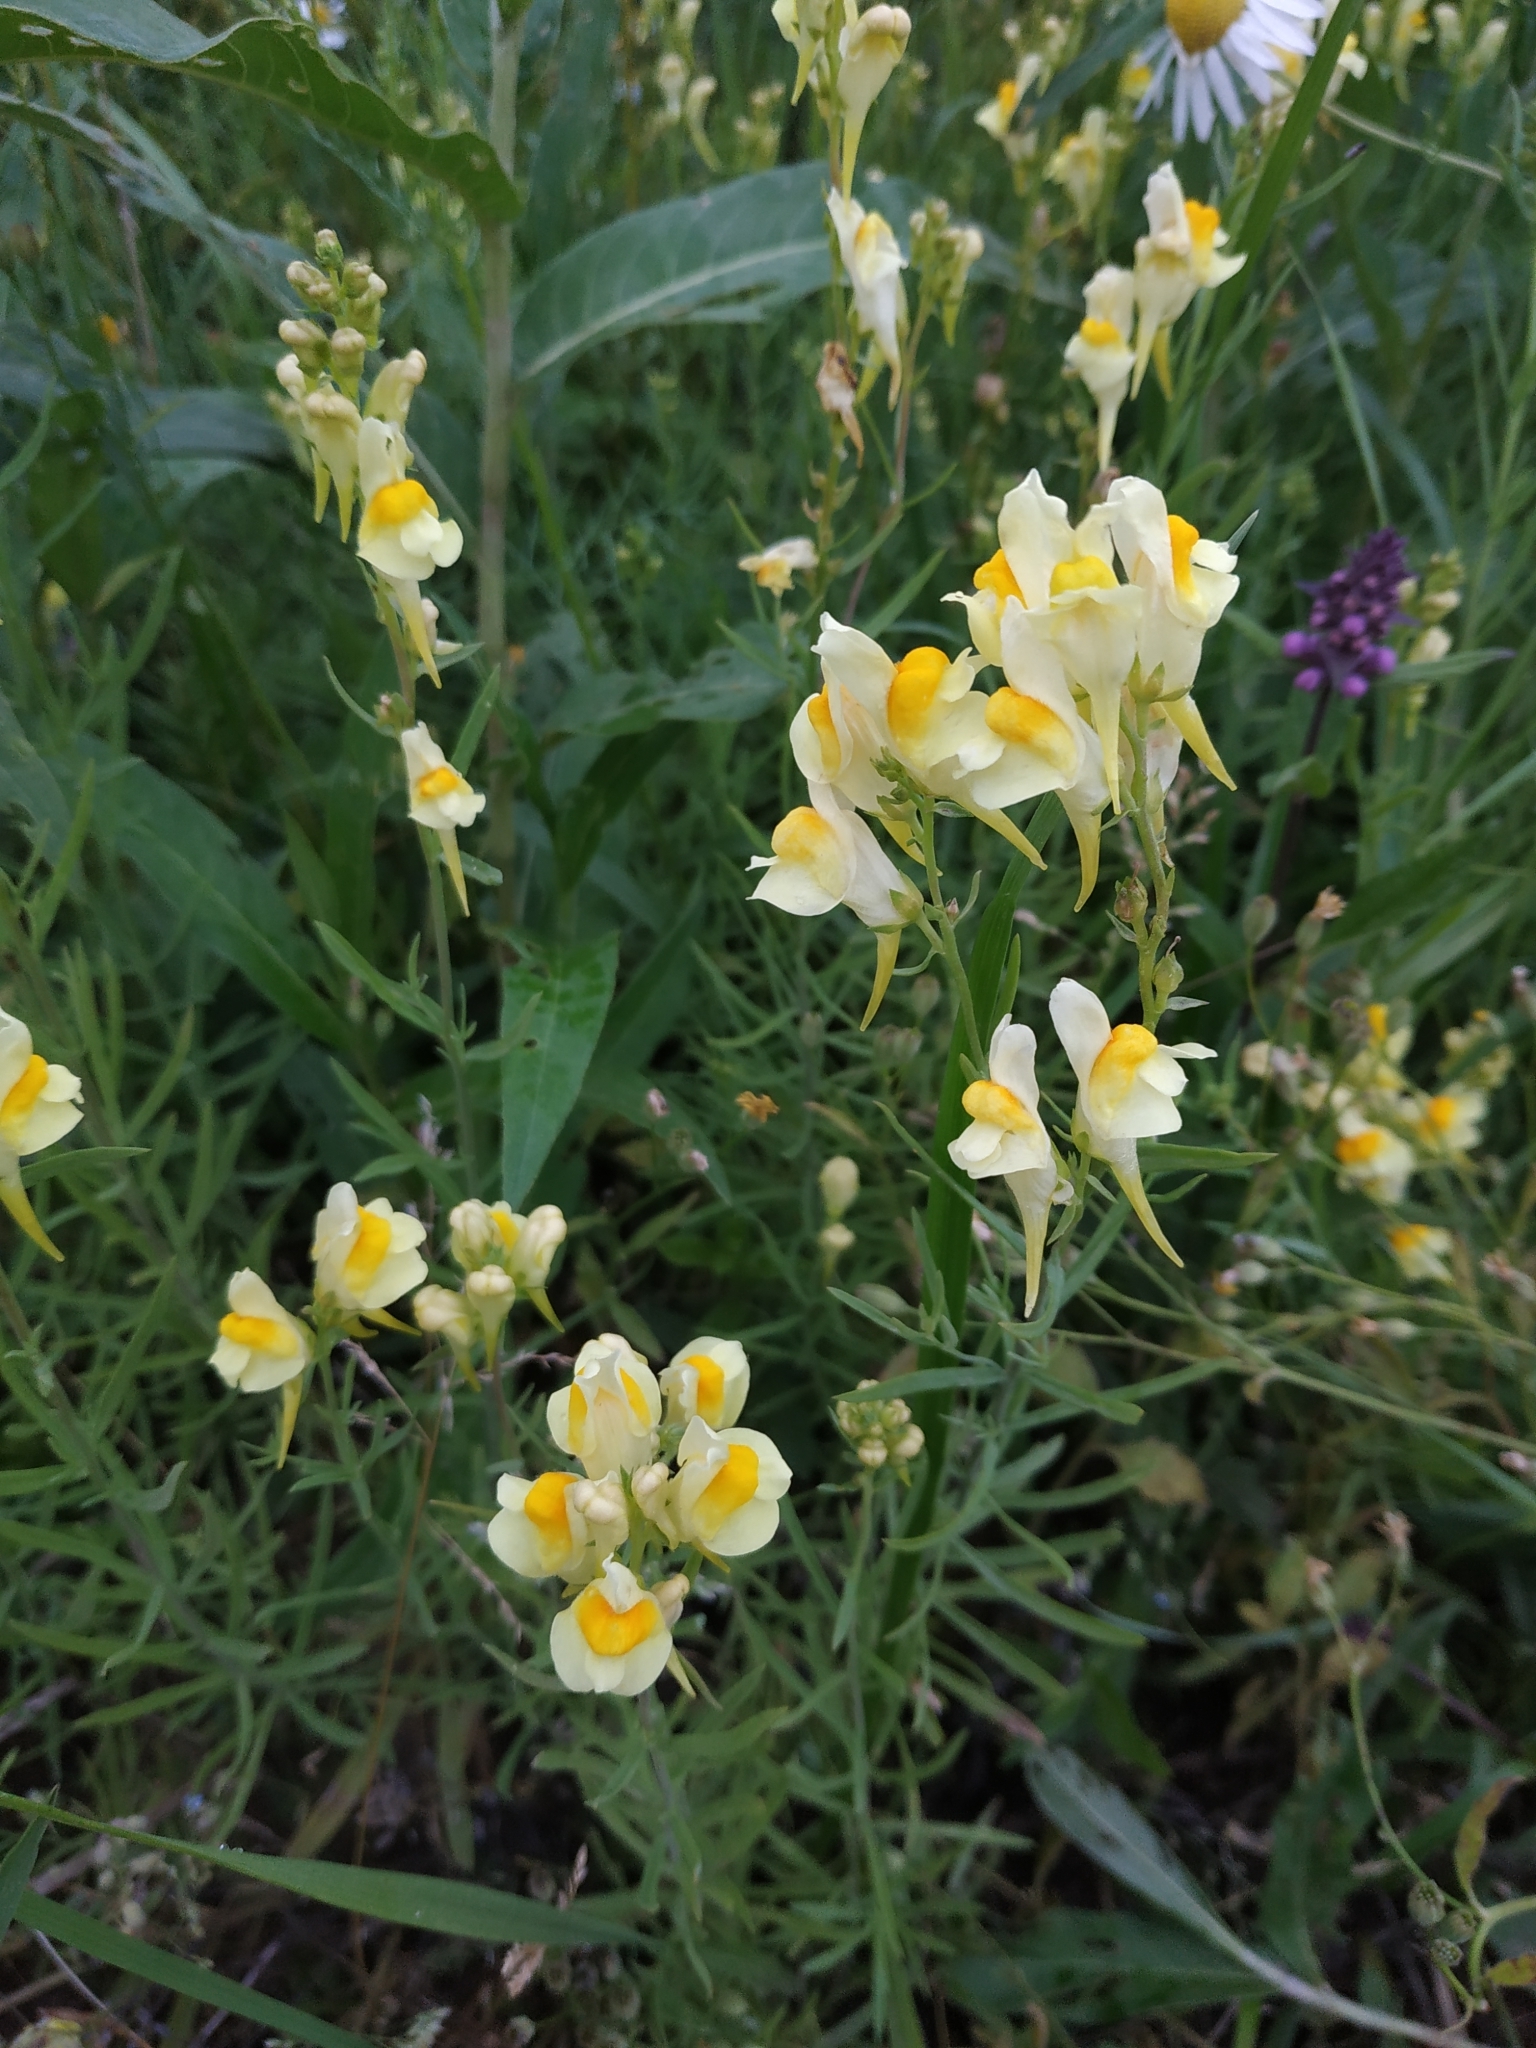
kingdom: Plantae
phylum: Tracheophyta
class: Magnoliopsida
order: Lamiales
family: Plantaginaceae
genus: Linaria
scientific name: Linaria vulgaris
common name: Butter and eggs
